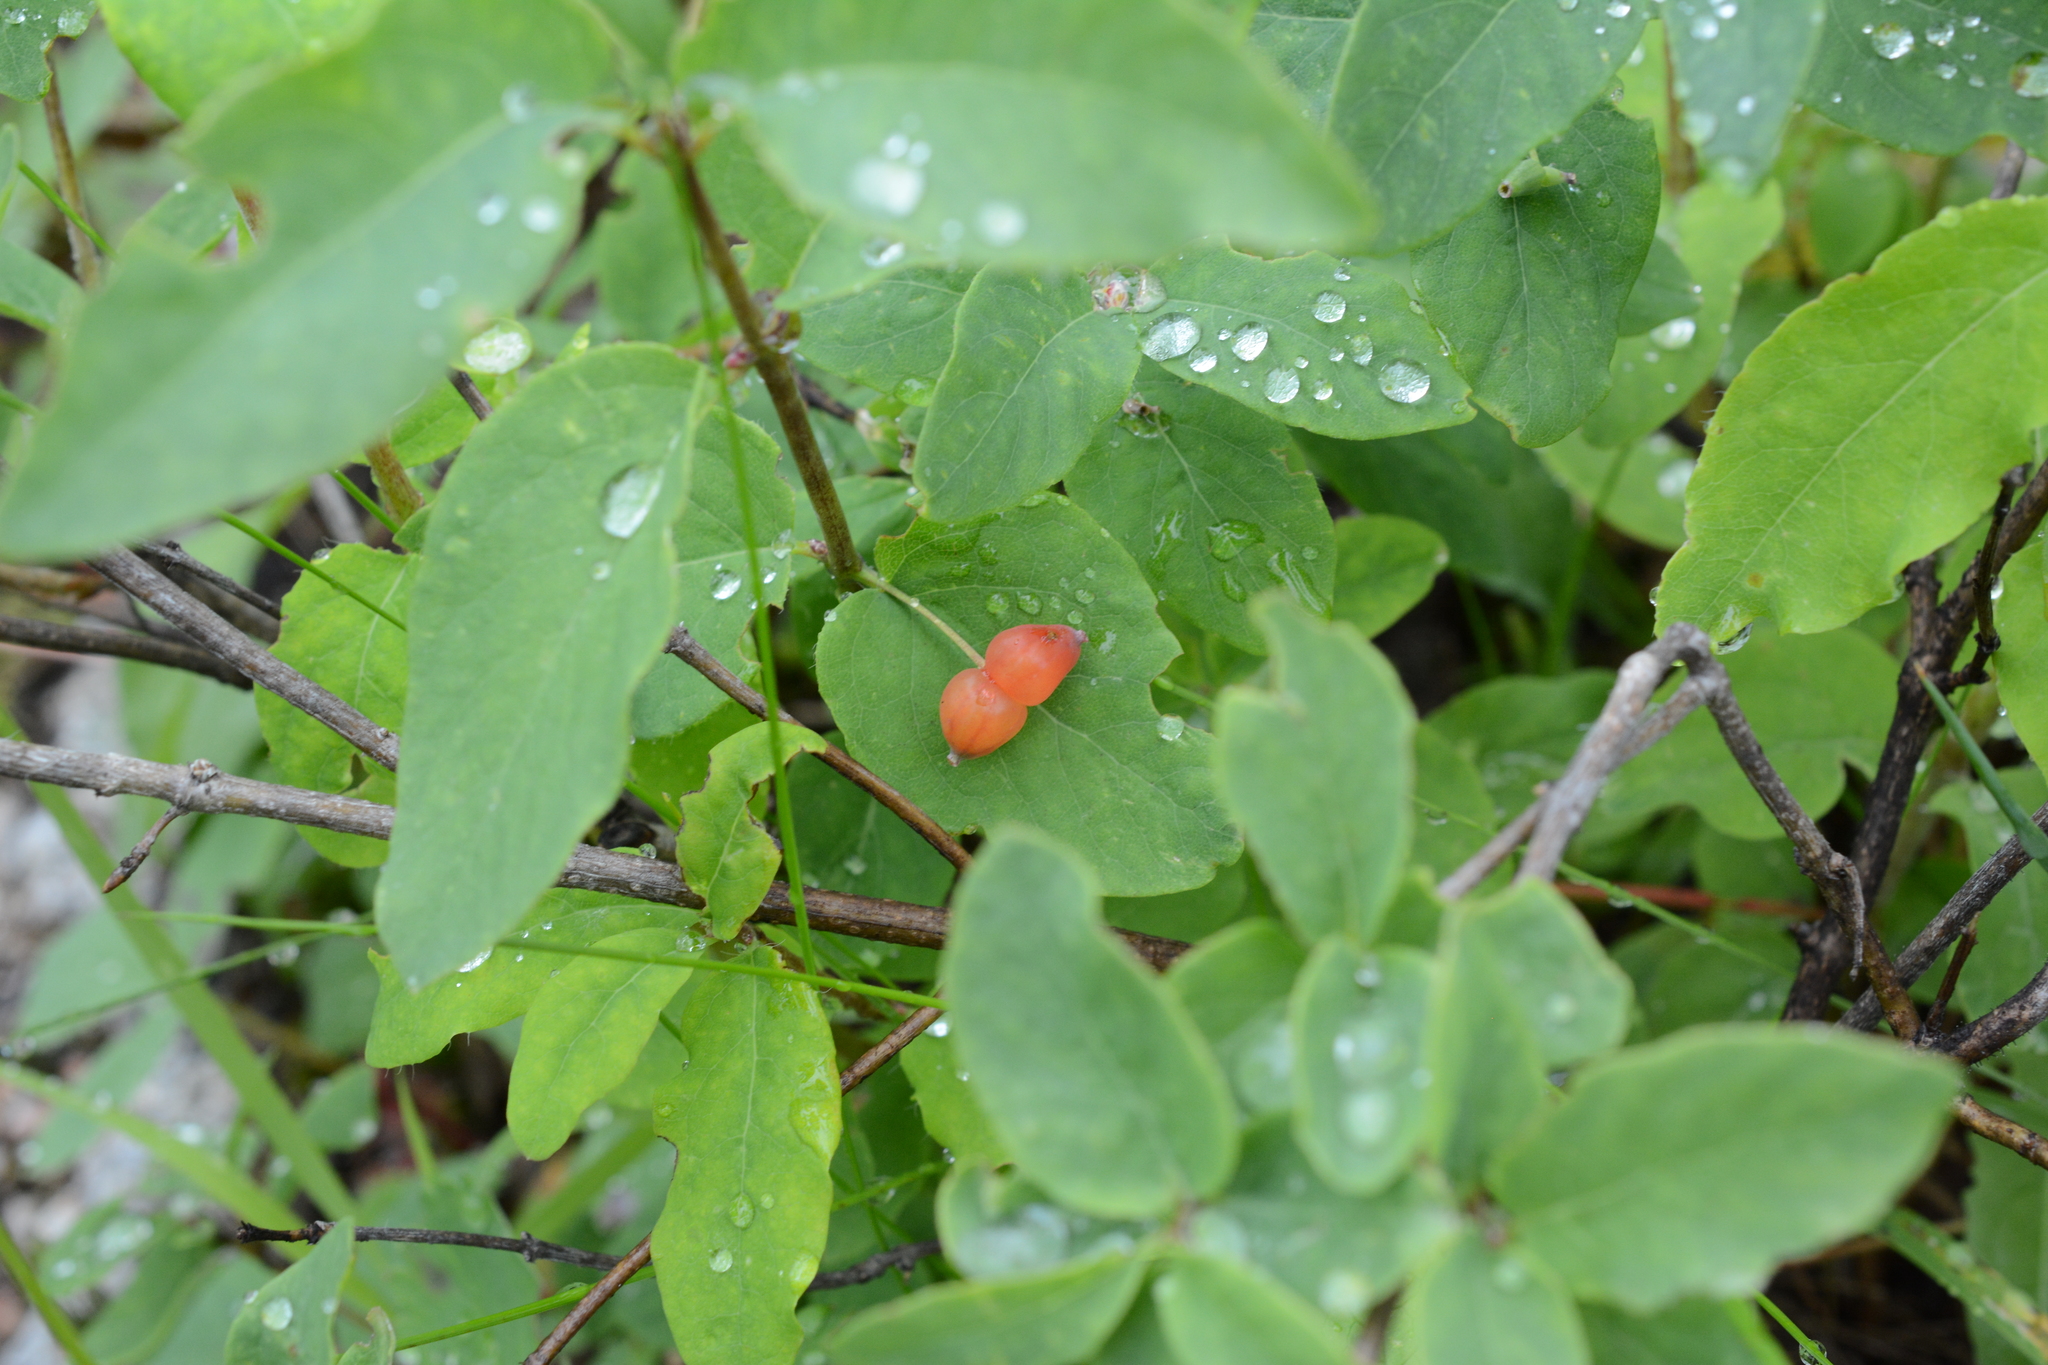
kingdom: Plantae
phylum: Tracheophyta
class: Magnoliopsida
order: Dipsacales
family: Caprifoliaceae
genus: Lonicera
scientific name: Lonicera utahensis
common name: Utah honeysuckle
